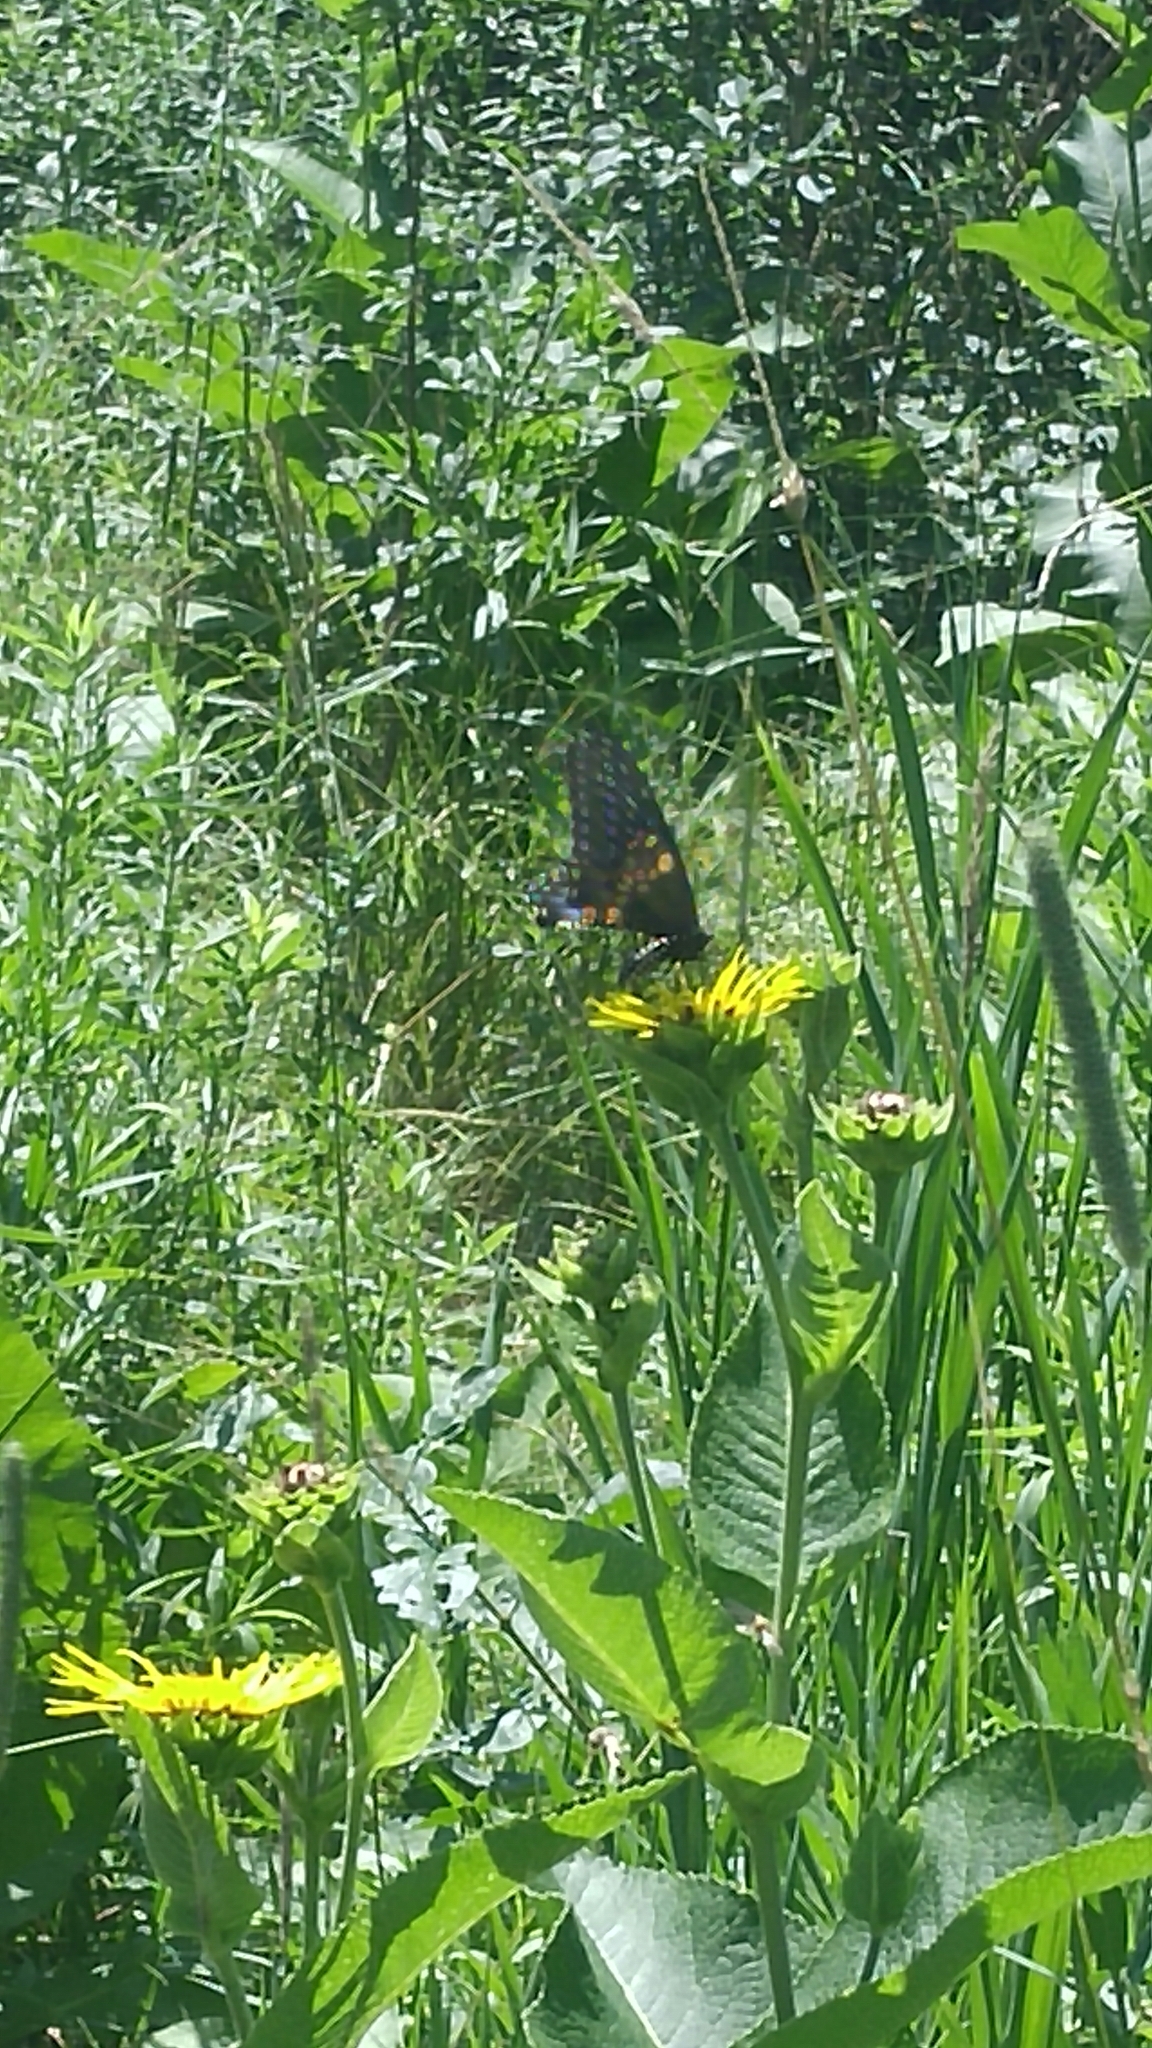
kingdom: Animalia
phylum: Arthropoda
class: Insecta
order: Lepidoptera
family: Papilionidae
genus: Papilio
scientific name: Papilio polyxenes
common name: Black swallowtail
